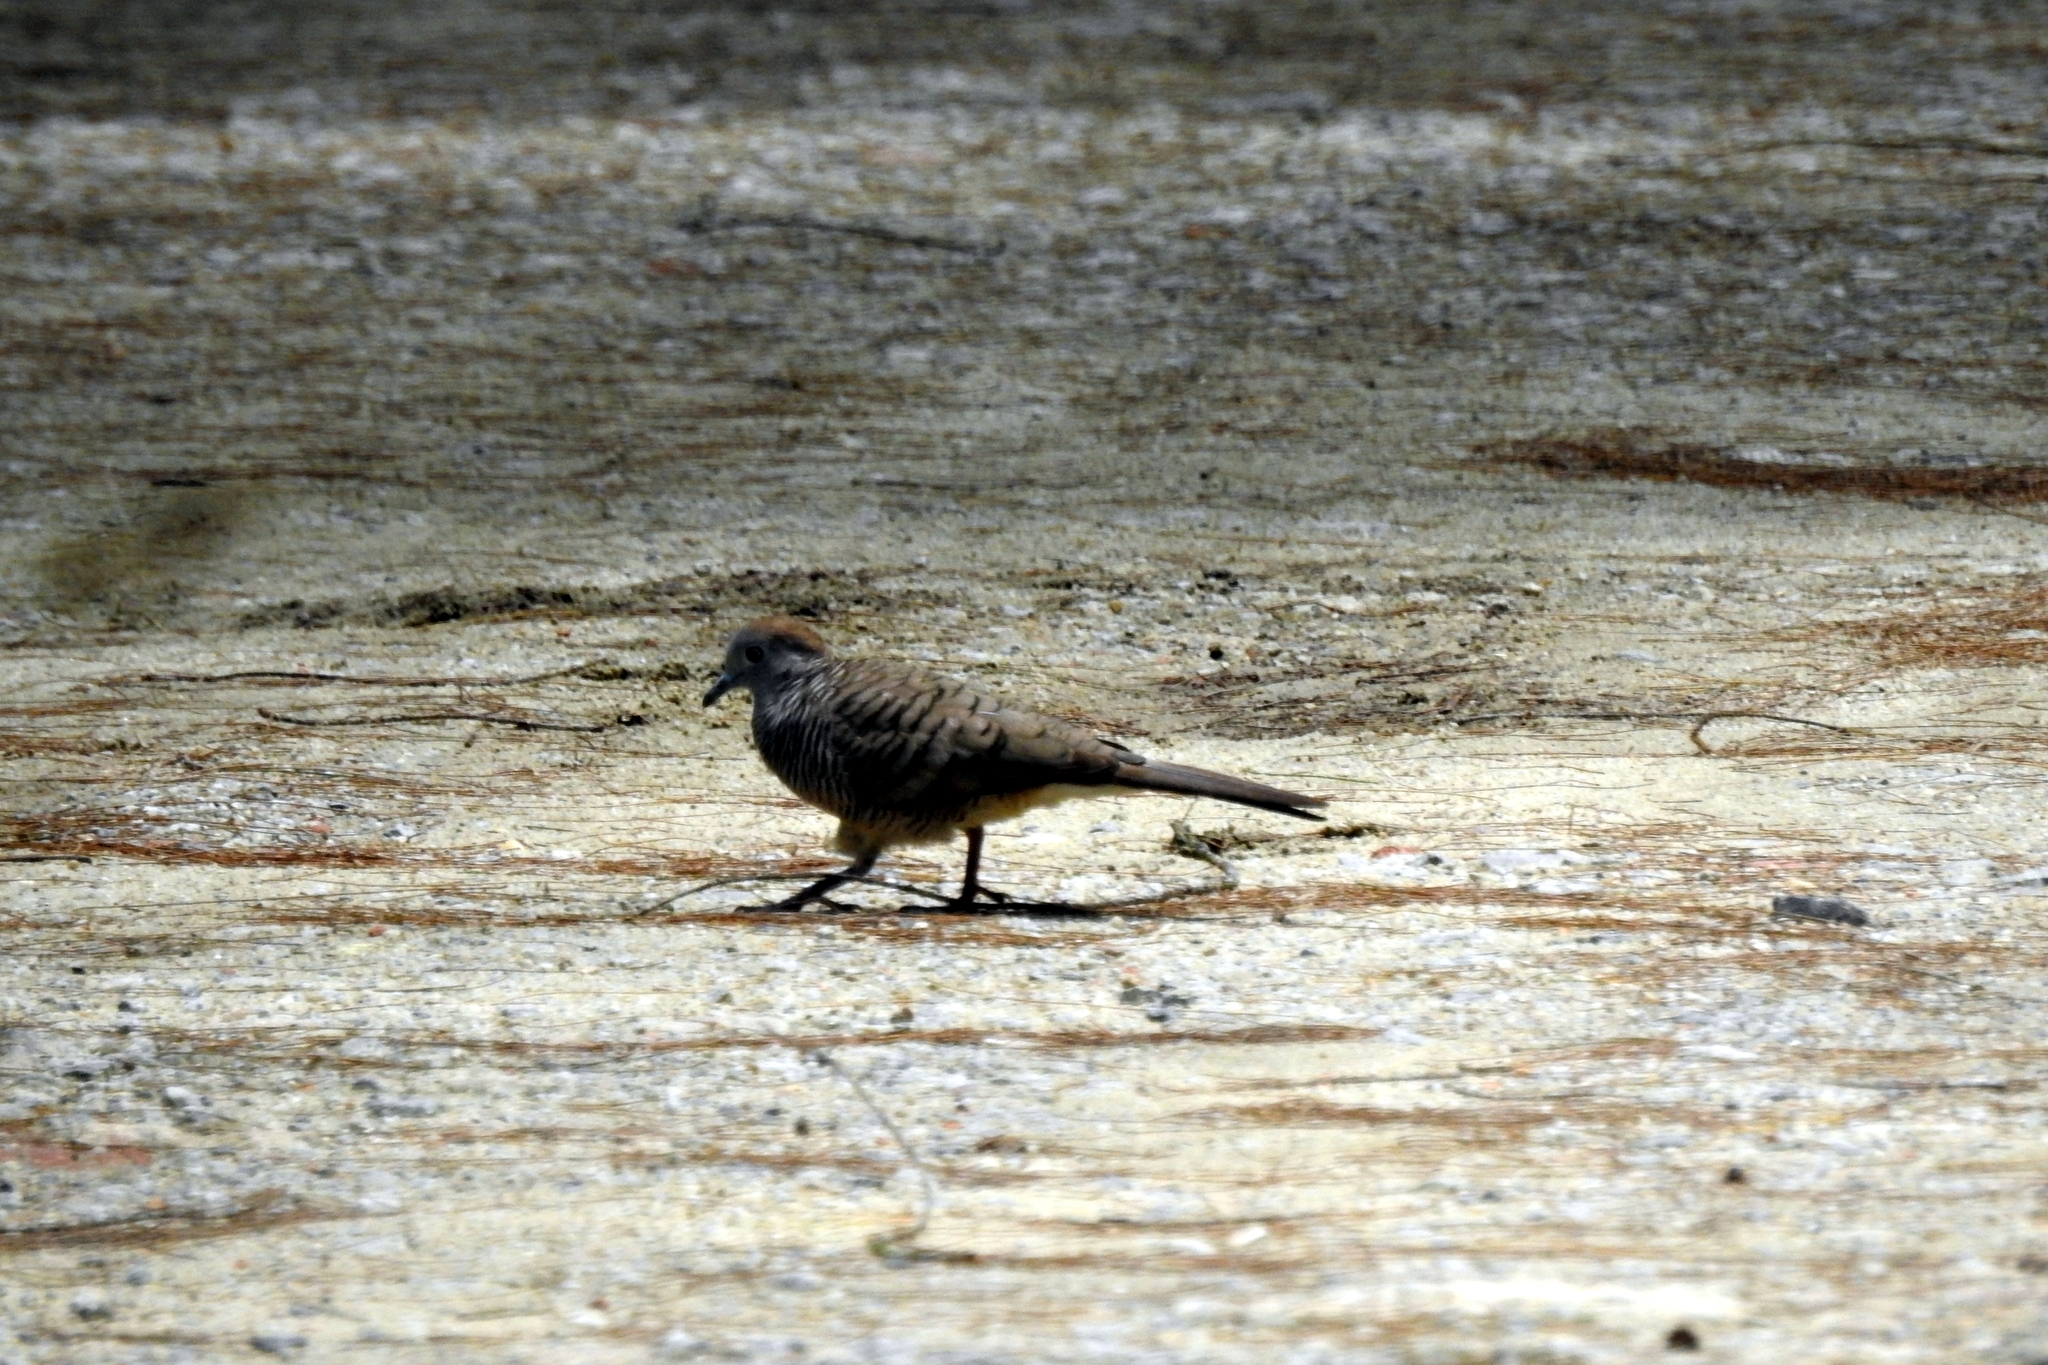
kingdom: Animalia
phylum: Chordata
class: Aves
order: Columbiformes
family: Columbidae
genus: Geopelia
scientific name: Geopelia striata
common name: Zebra dove
